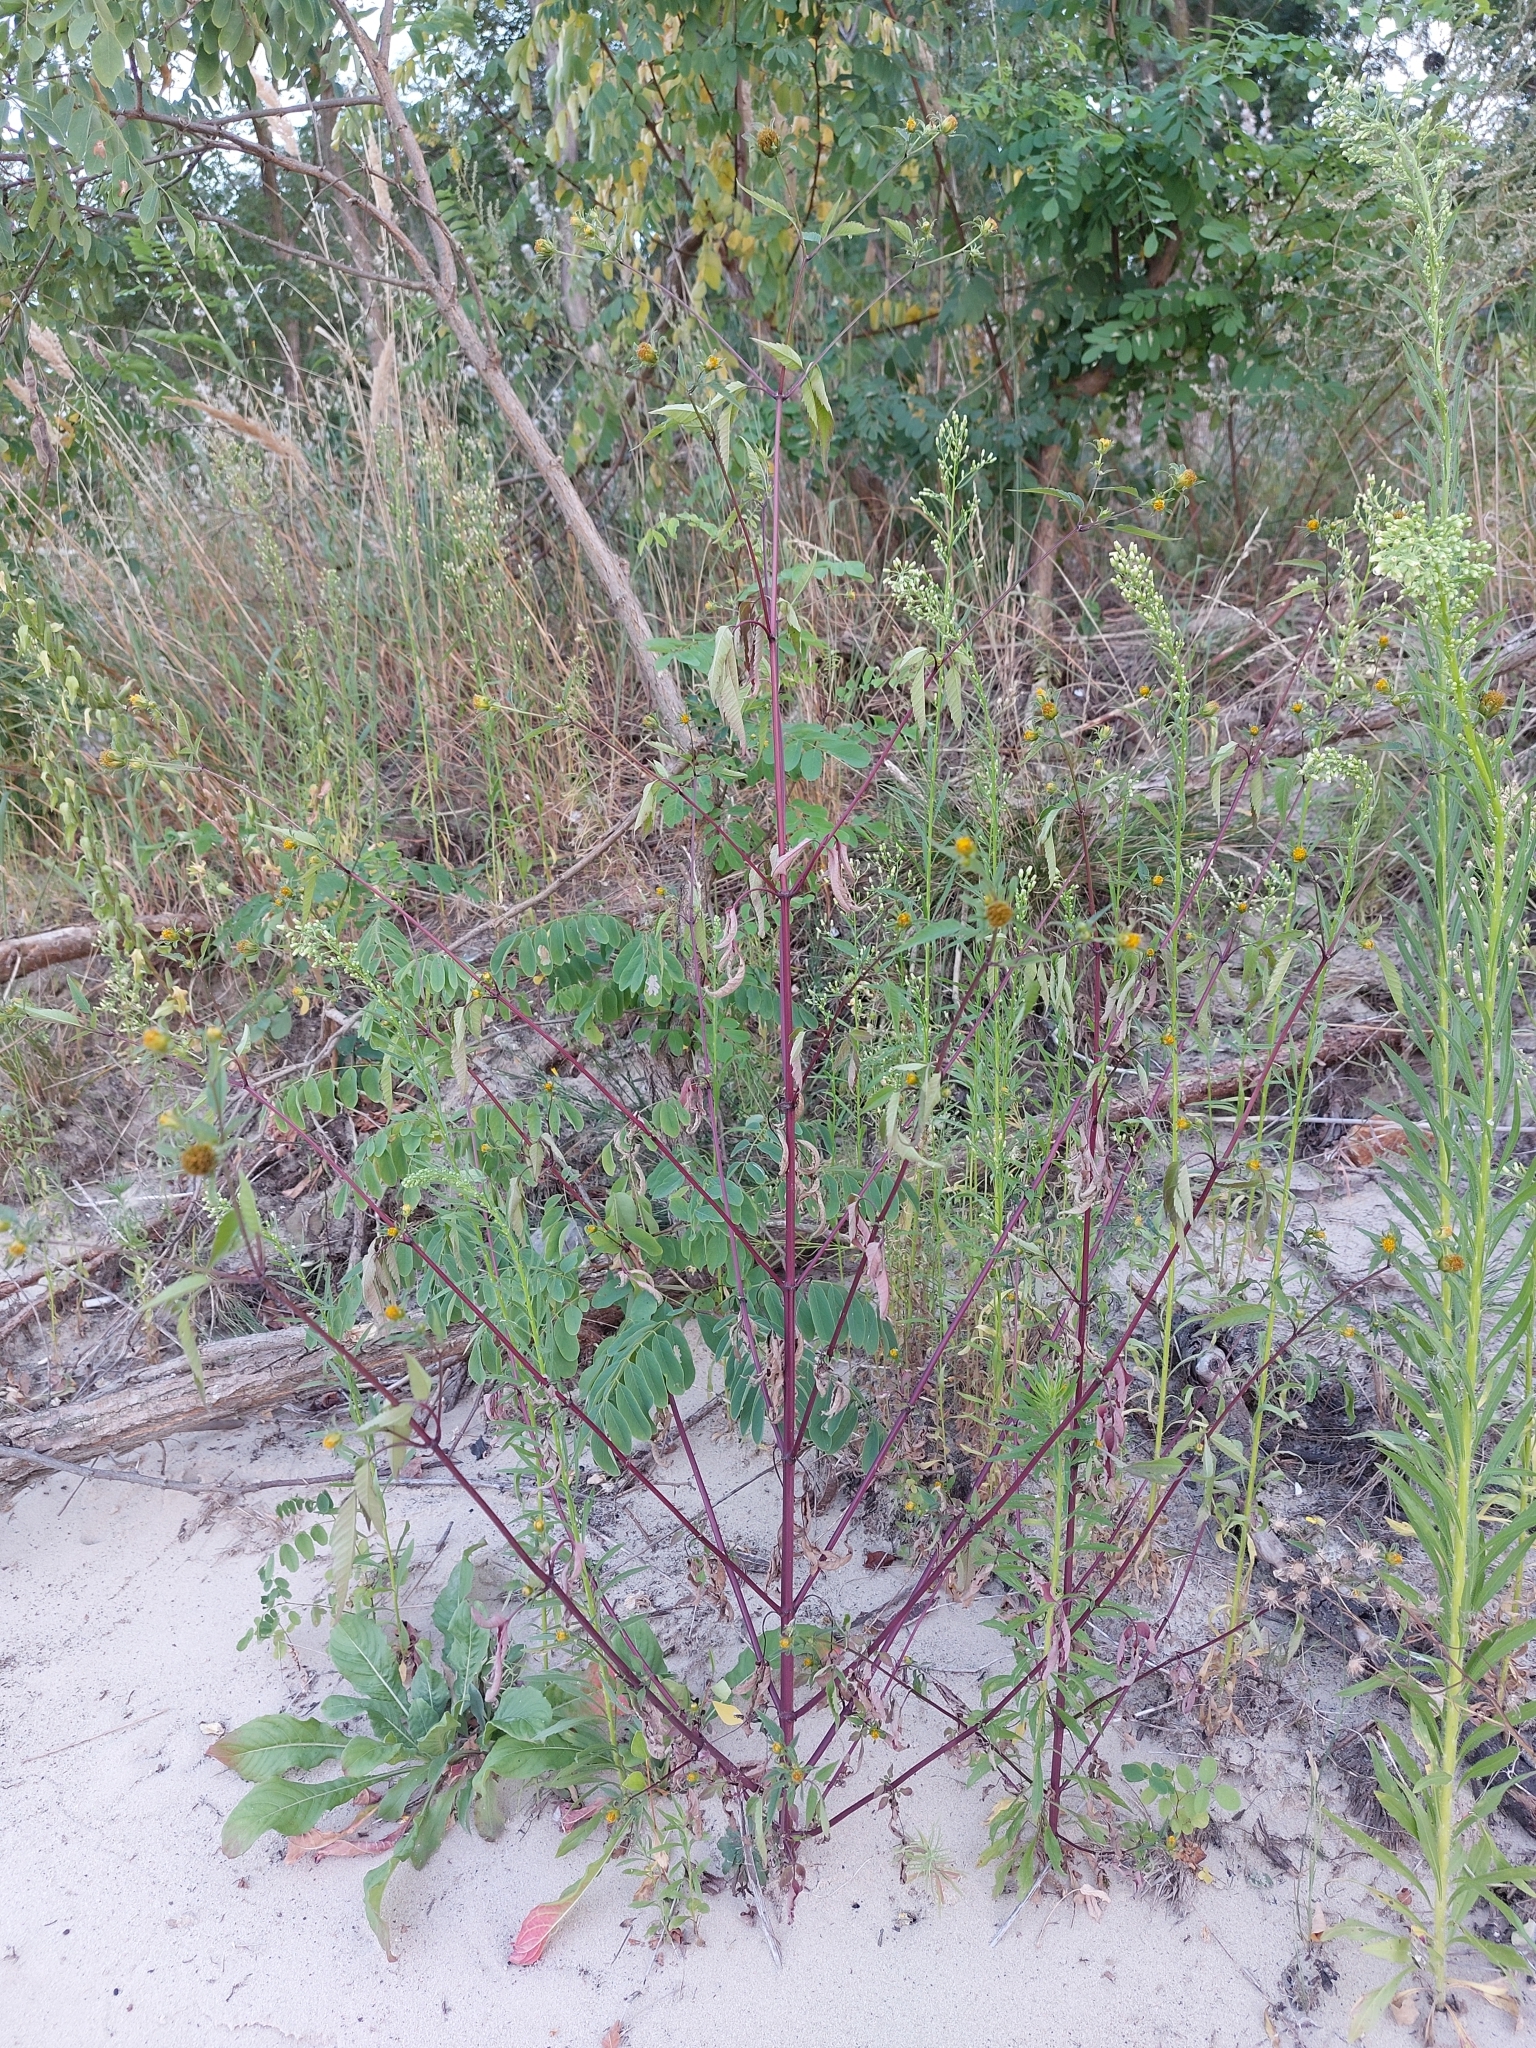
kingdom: Plantae
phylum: Tracheophyta
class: Magnoliopsida
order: Asterales
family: Asteraceae
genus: Bidens
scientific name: Bidens frondosa
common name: Beggarticks
